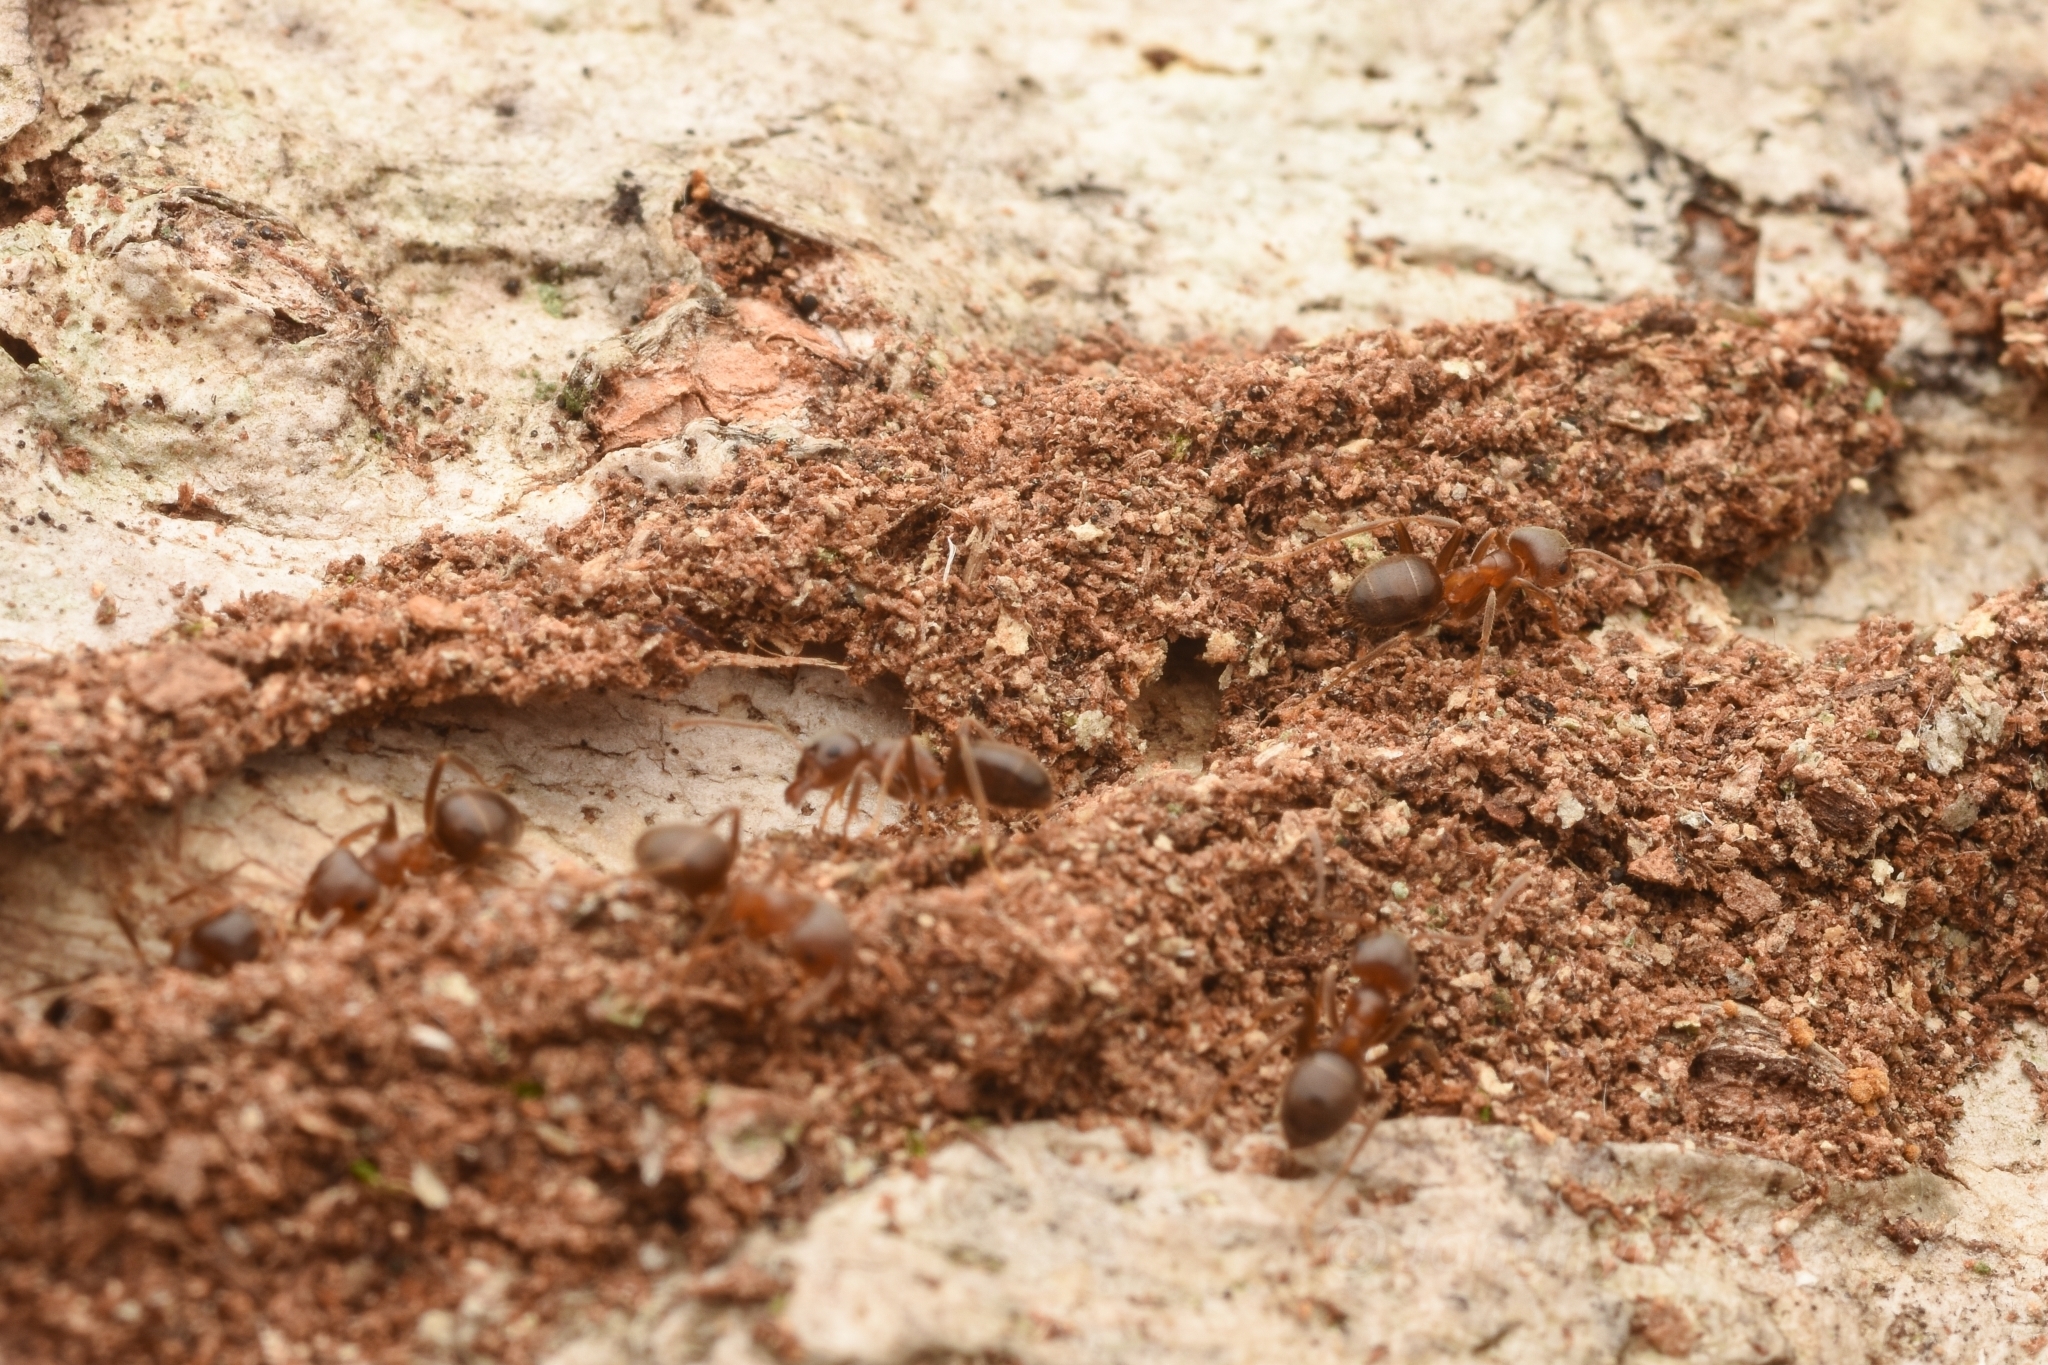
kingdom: Animalia
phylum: Arthropoda
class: Insecta
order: Hymenoptera
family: Formicidae
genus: Lasius
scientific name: Lasius hayashi
